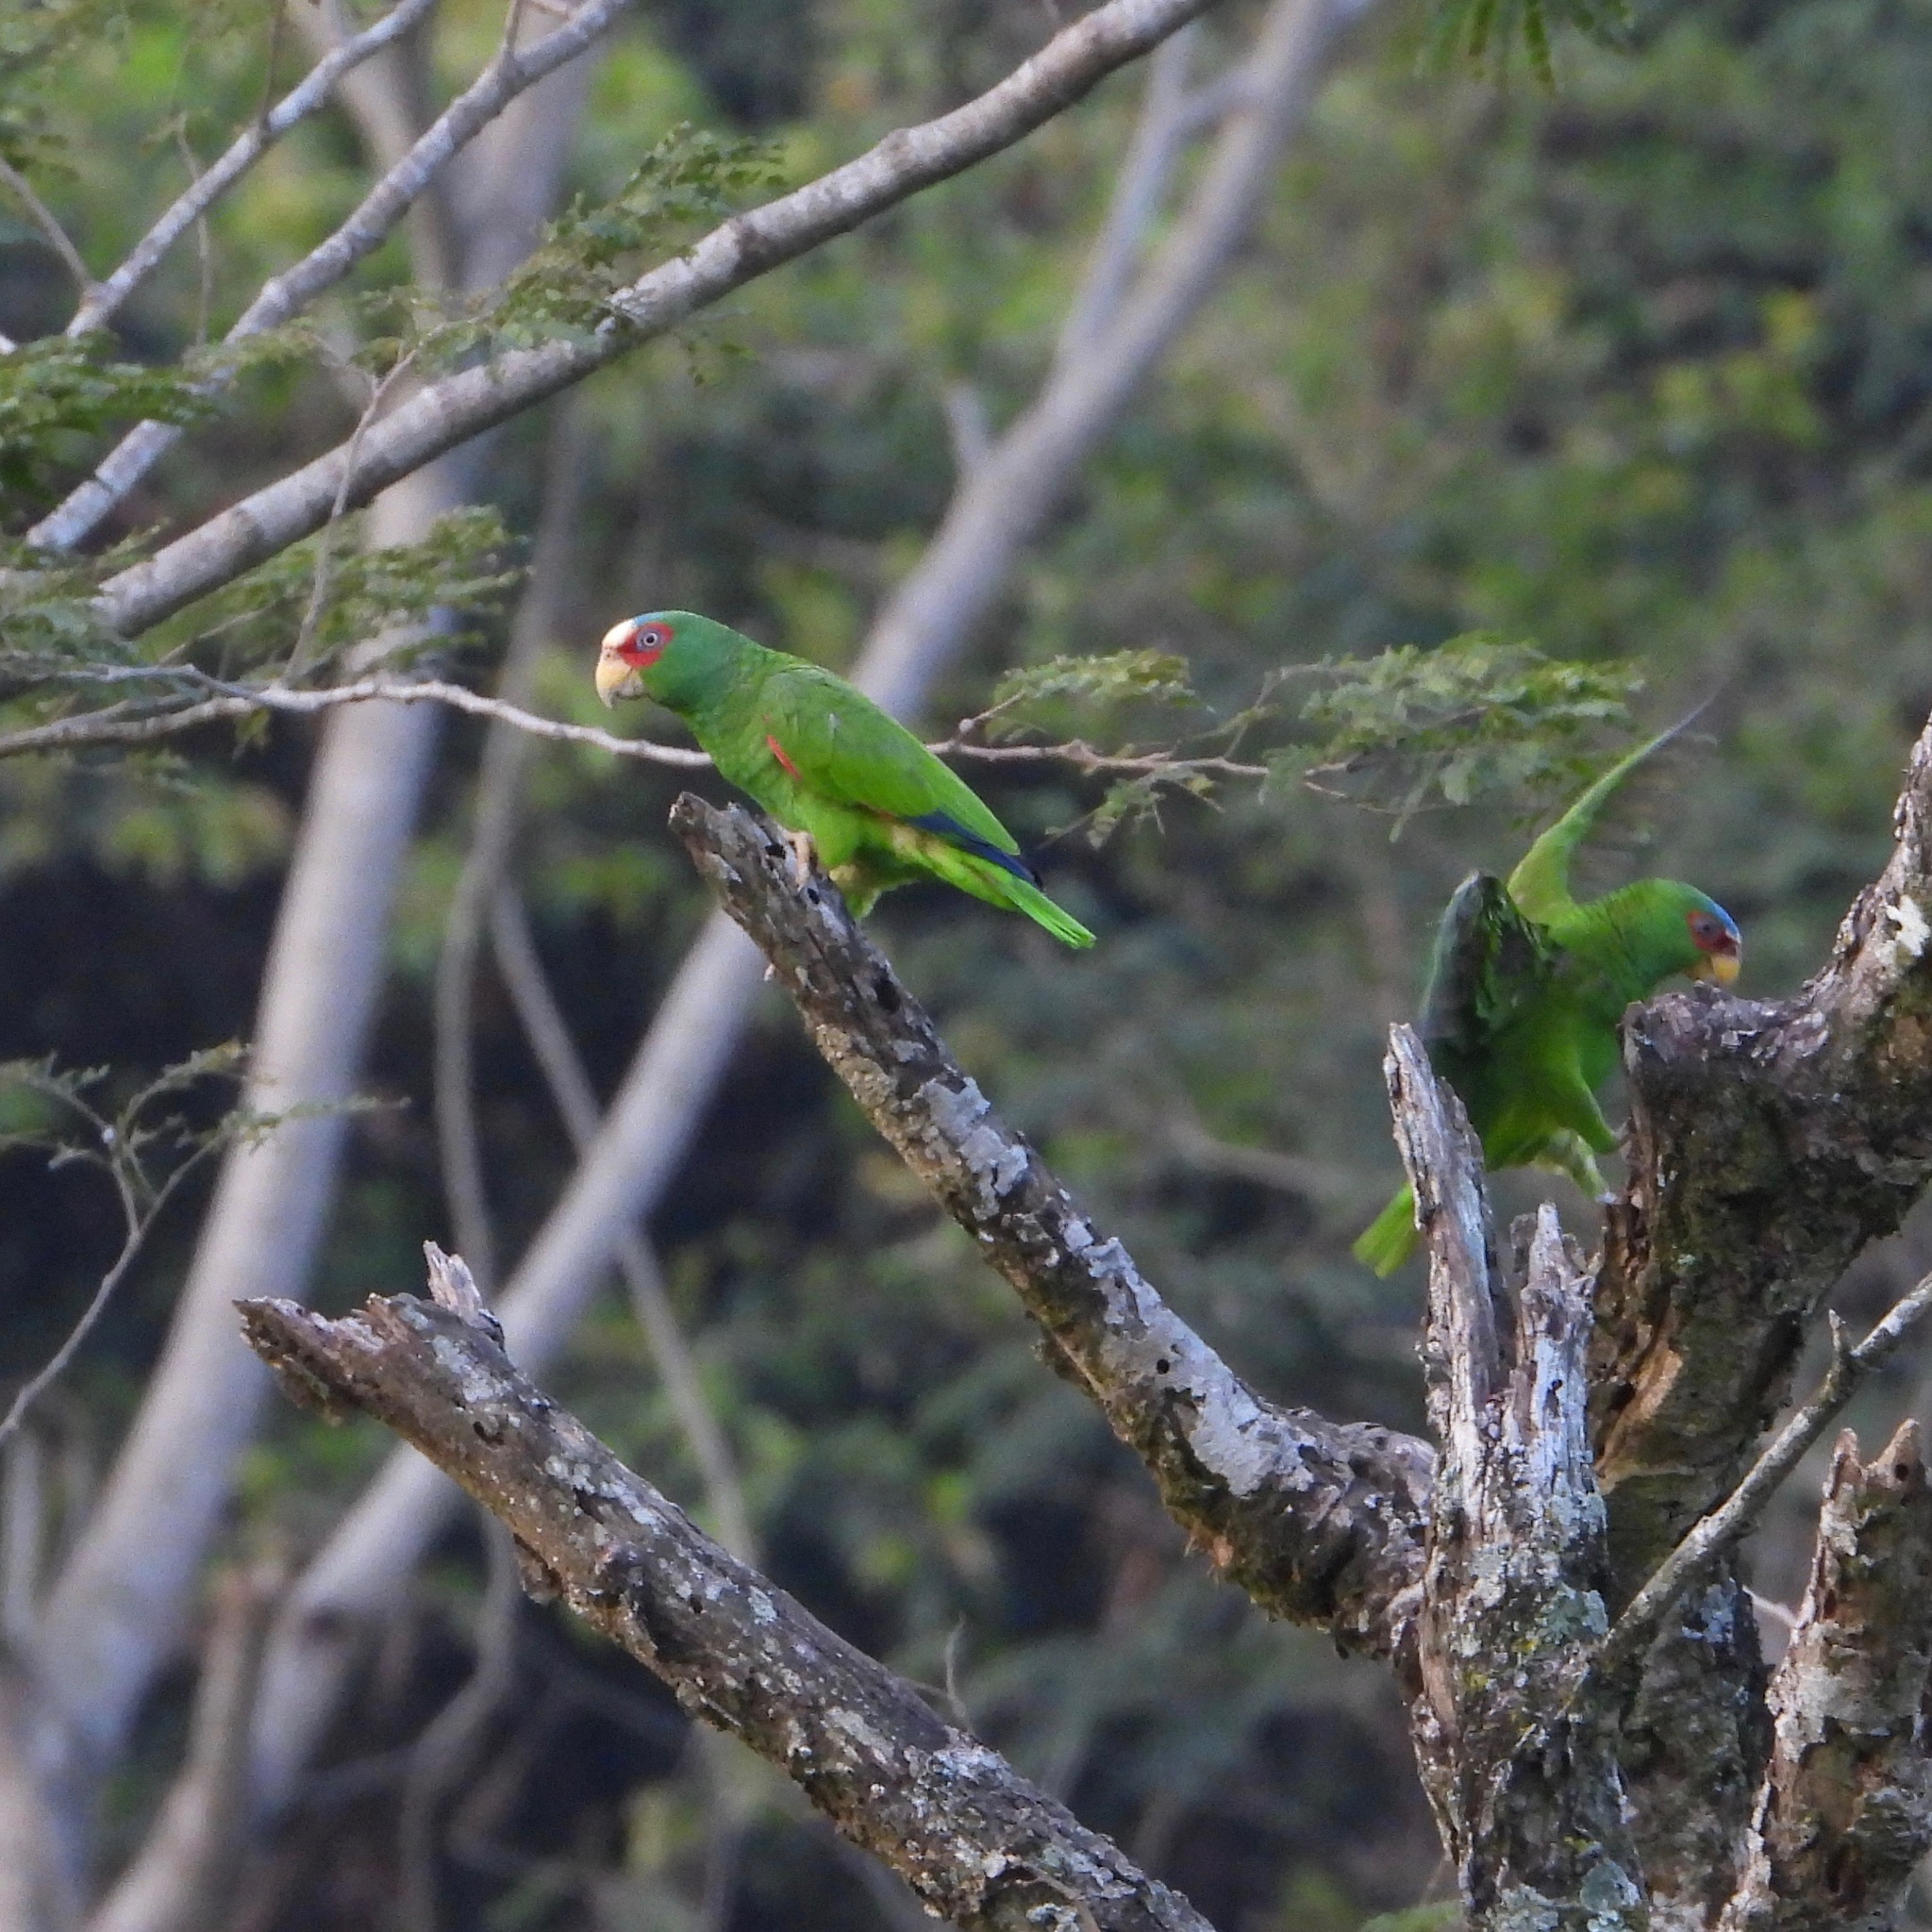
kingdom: Animalia
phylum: Chordata
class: Aves
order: Psittaciformes
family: Psittacidae
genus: Amazona
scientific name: Amazona albifrons
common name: White-fronted amazon
